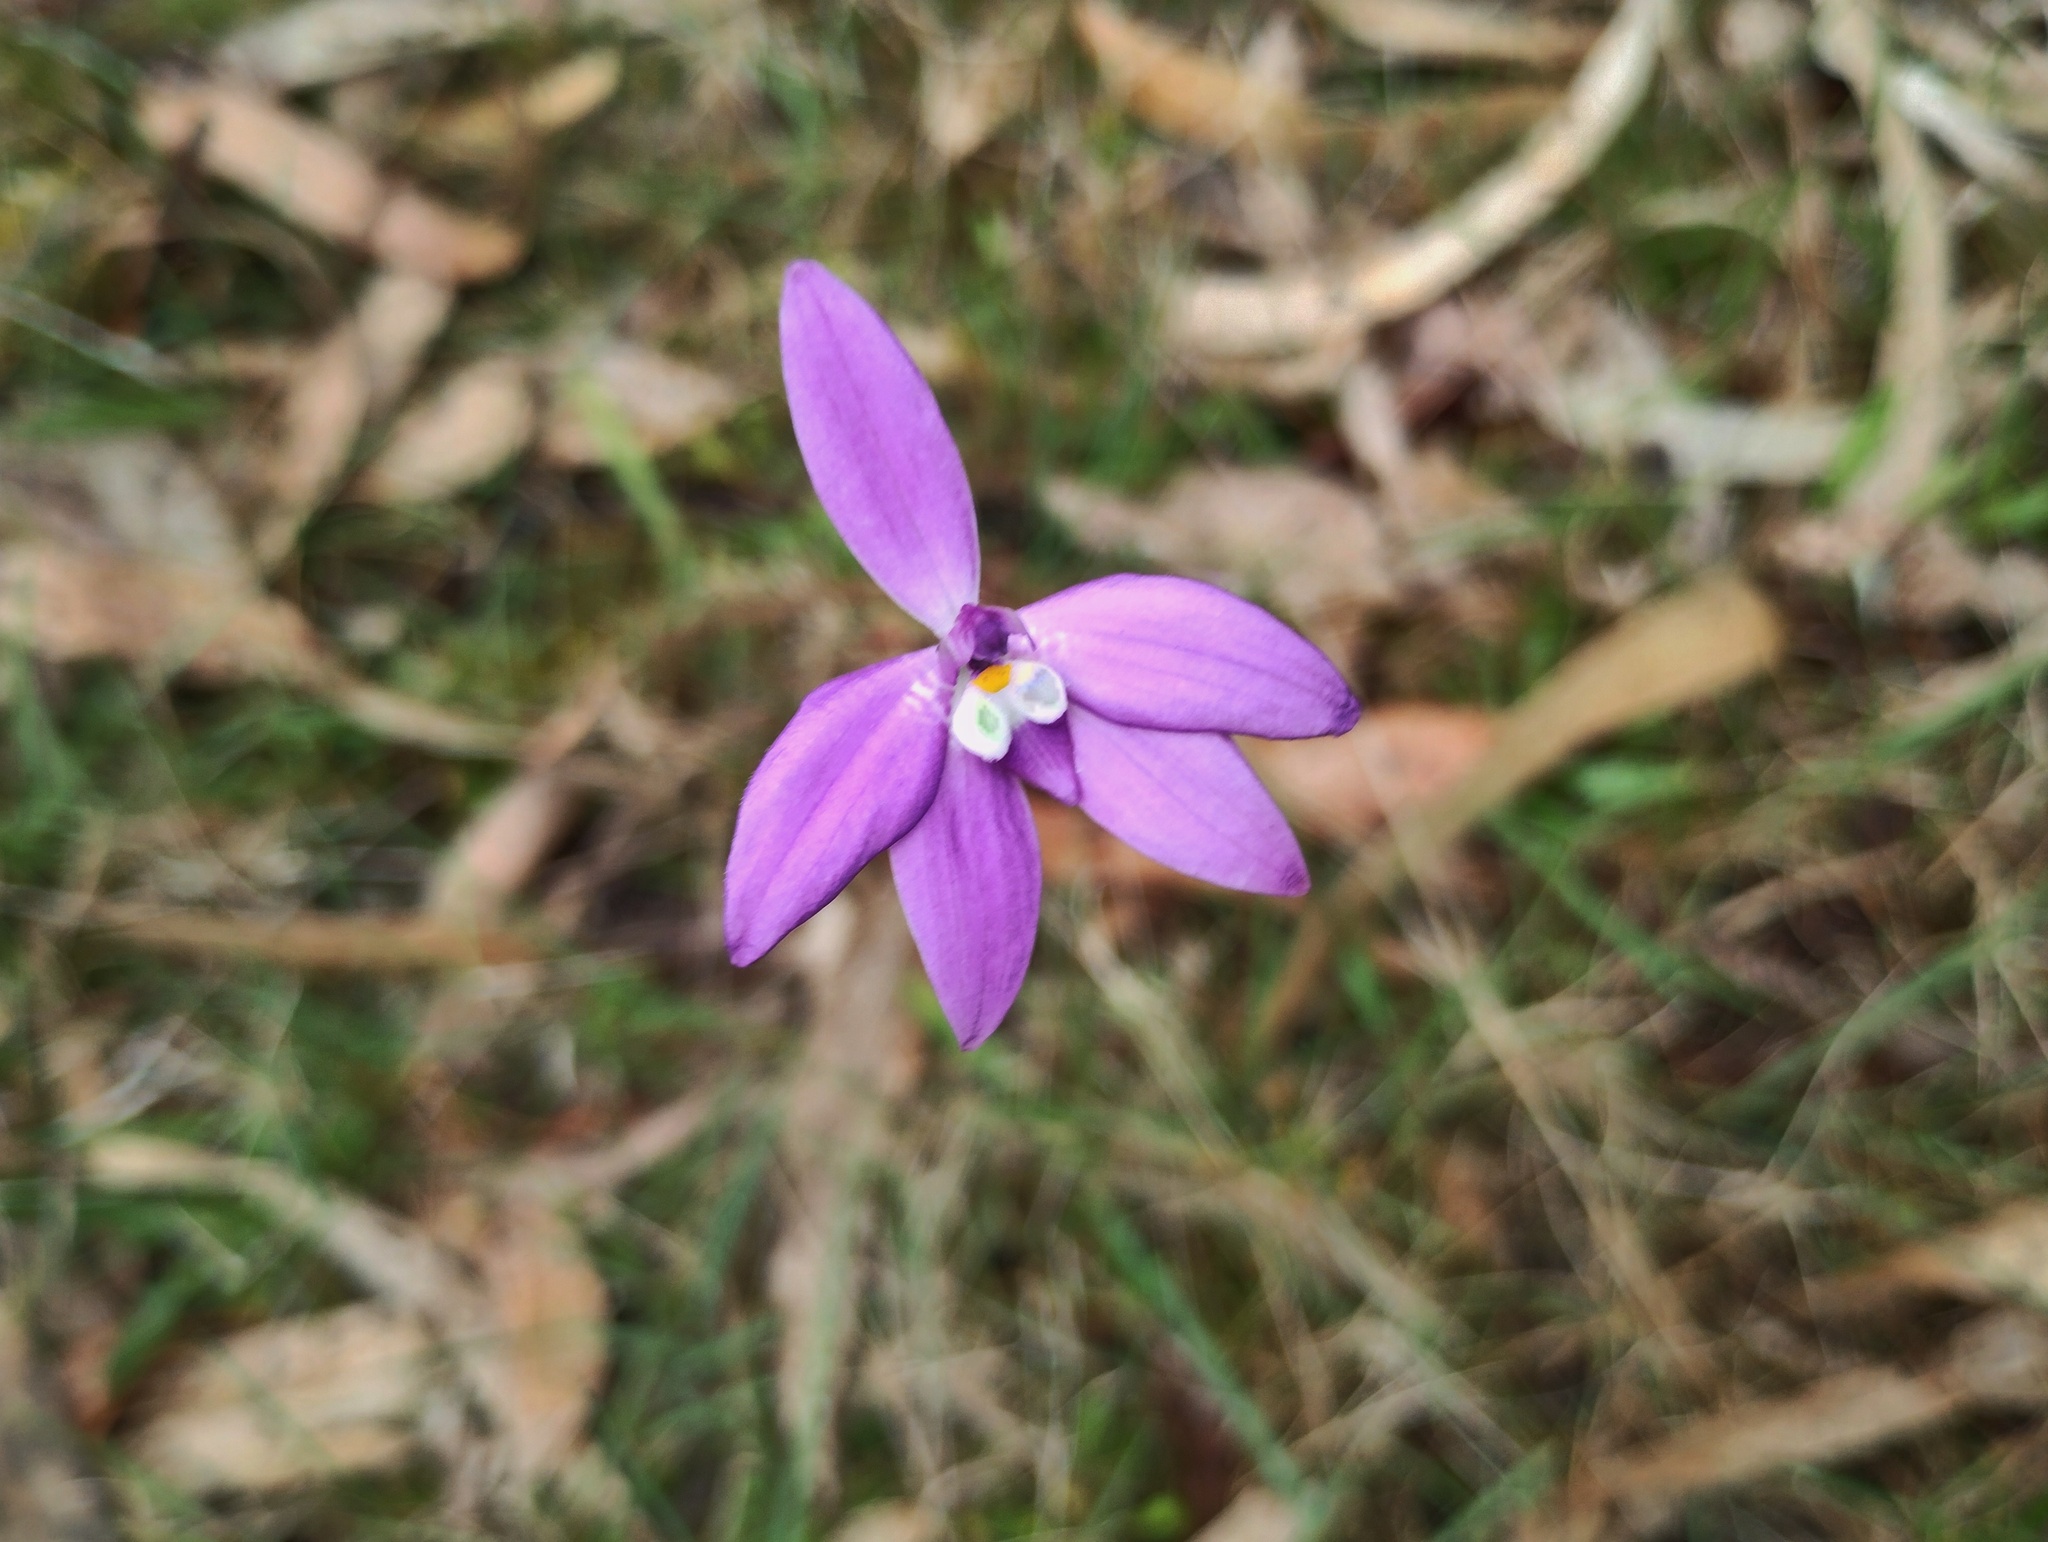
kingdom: Plantae
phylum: Tracheophyta
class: Liliopsida
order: Asparagales
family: Orchidaceae
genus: Caladenia
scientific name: Caladenia major
